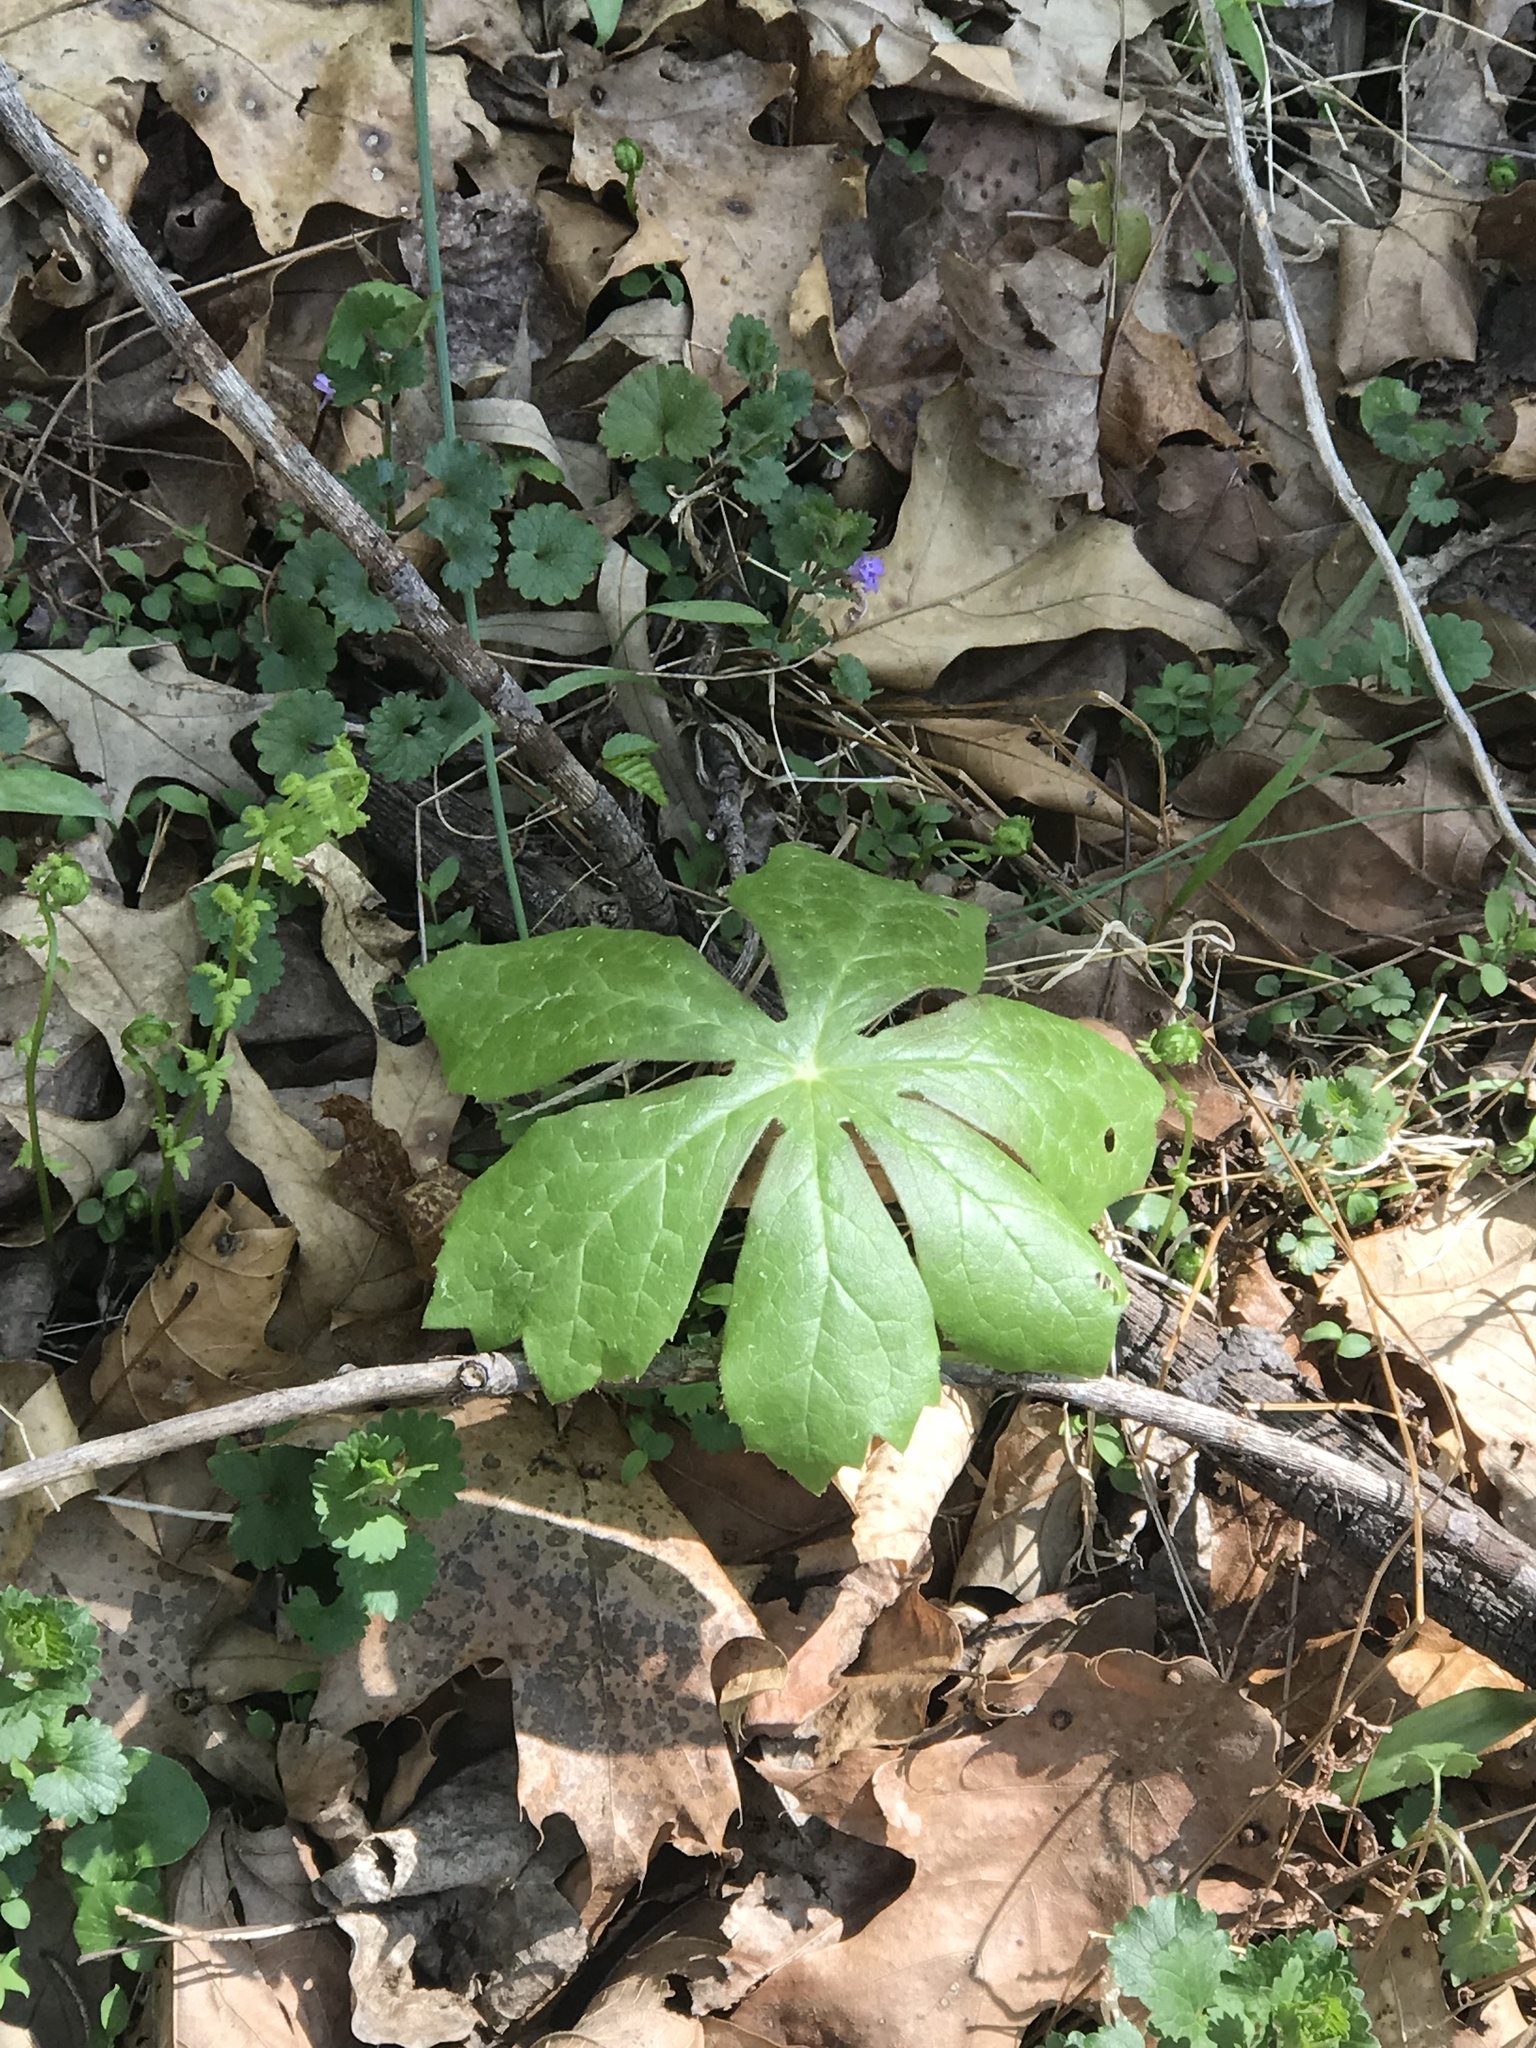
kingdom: Plantae
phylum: Tracheophyta
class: Magnoliopsida
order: Ranunculales
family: Berberidaceae
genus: Podophyllum
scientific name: Podophyllum peltatum
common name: Wild mandrake
